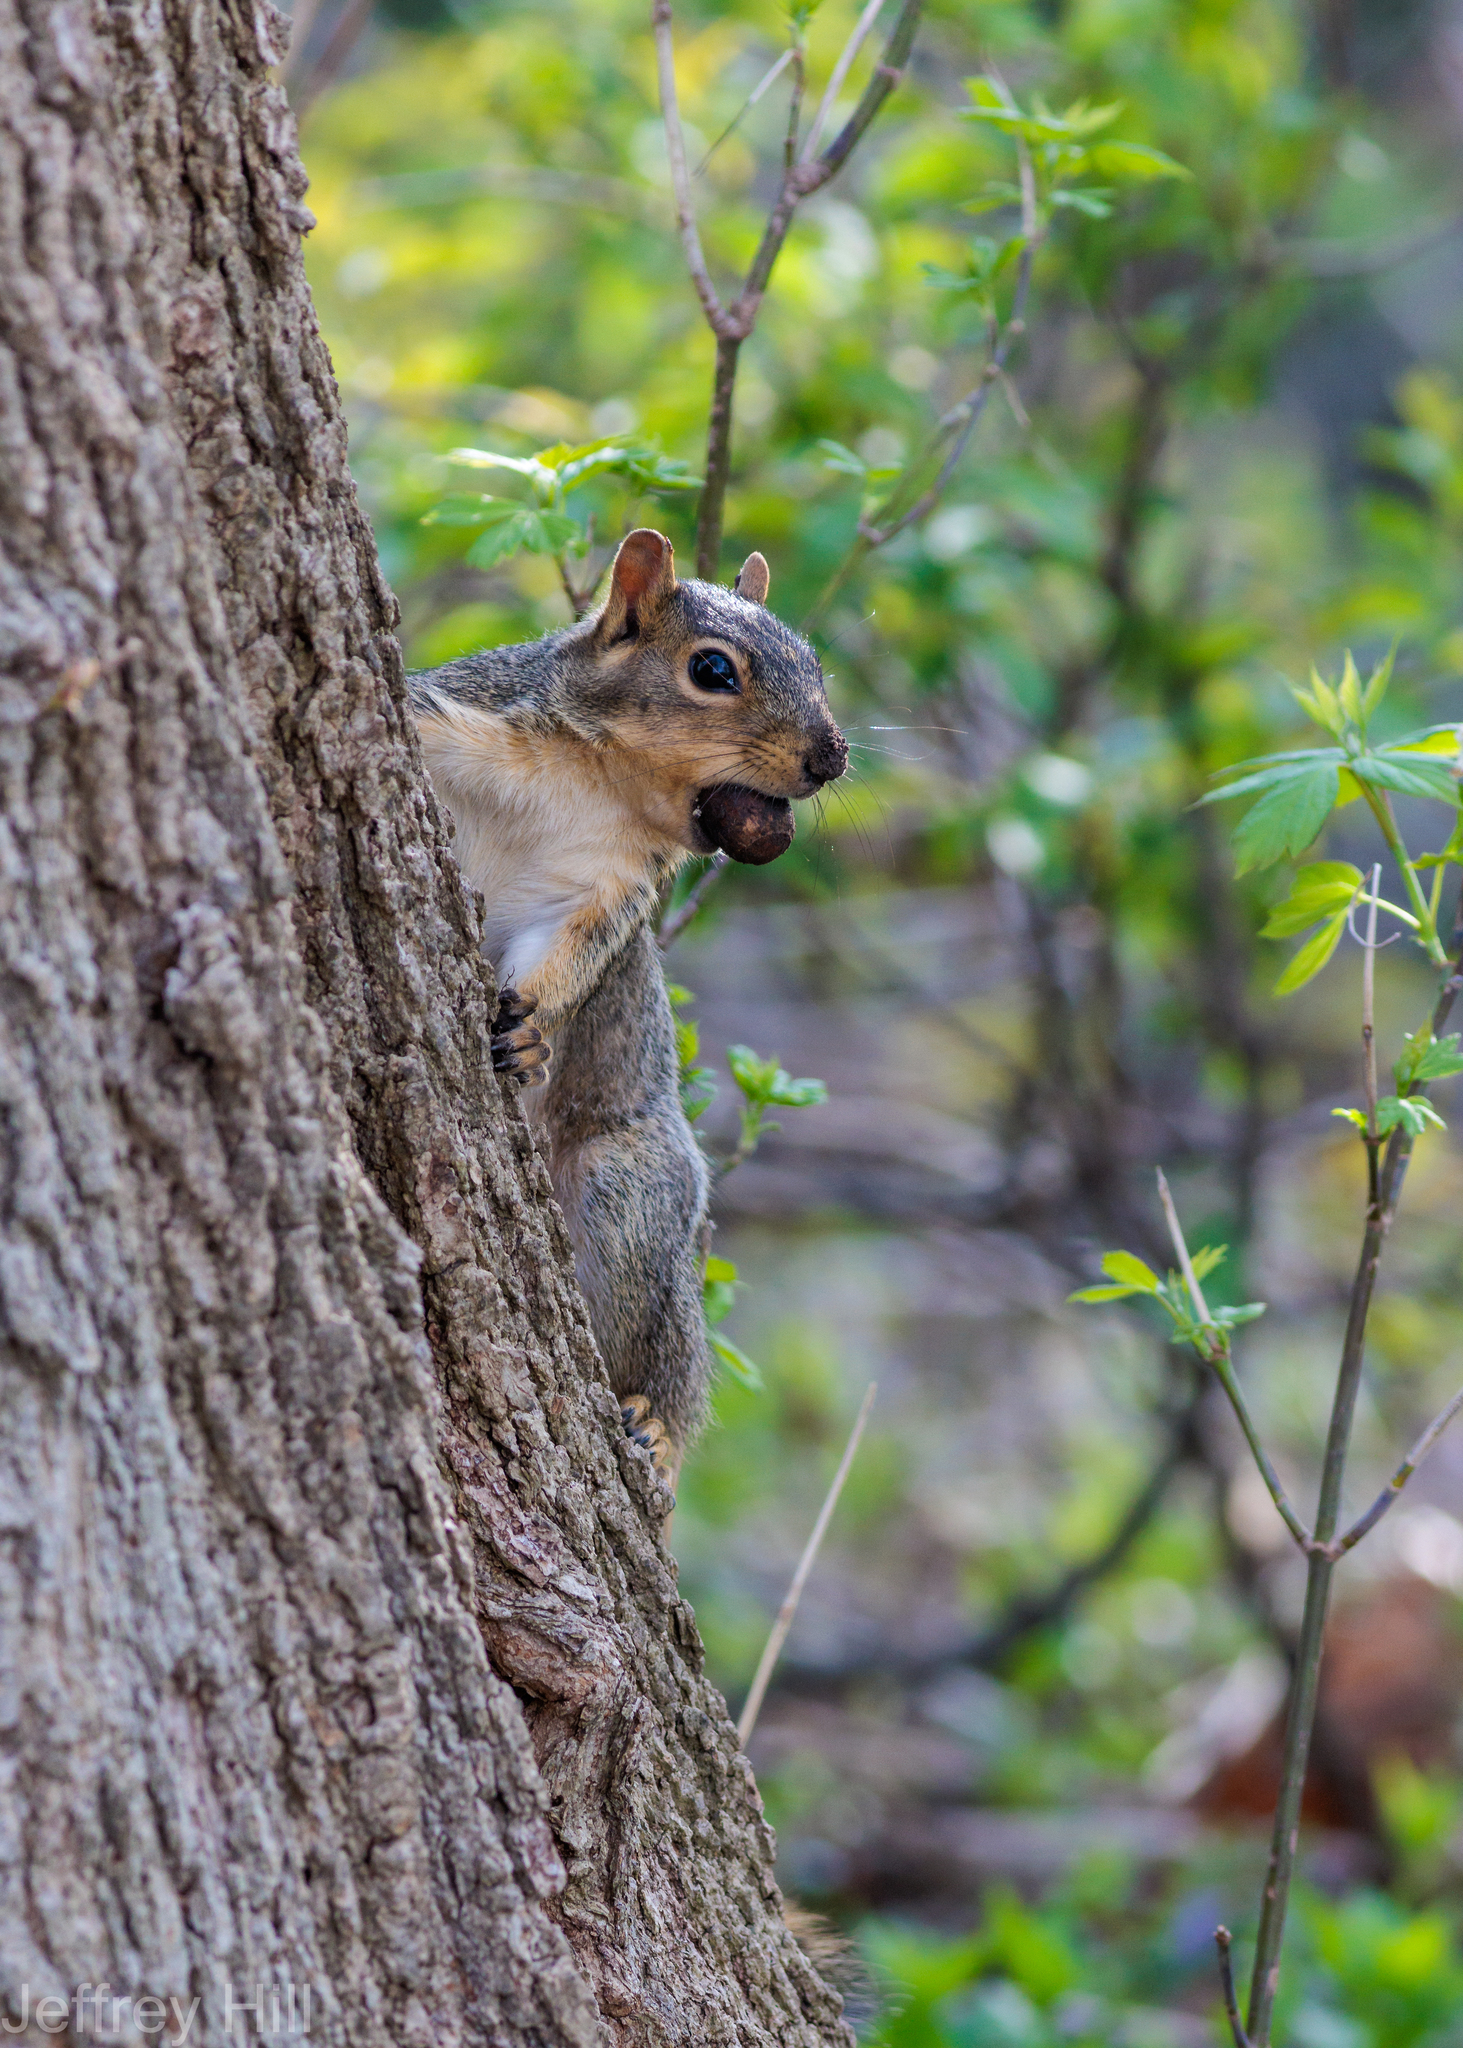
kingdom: Animalia
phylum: Chordata
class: Mammalia
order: Rodentia
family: Sciuridae
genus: Sciurus
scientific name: Sciurus niger
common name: Fox squirrel
